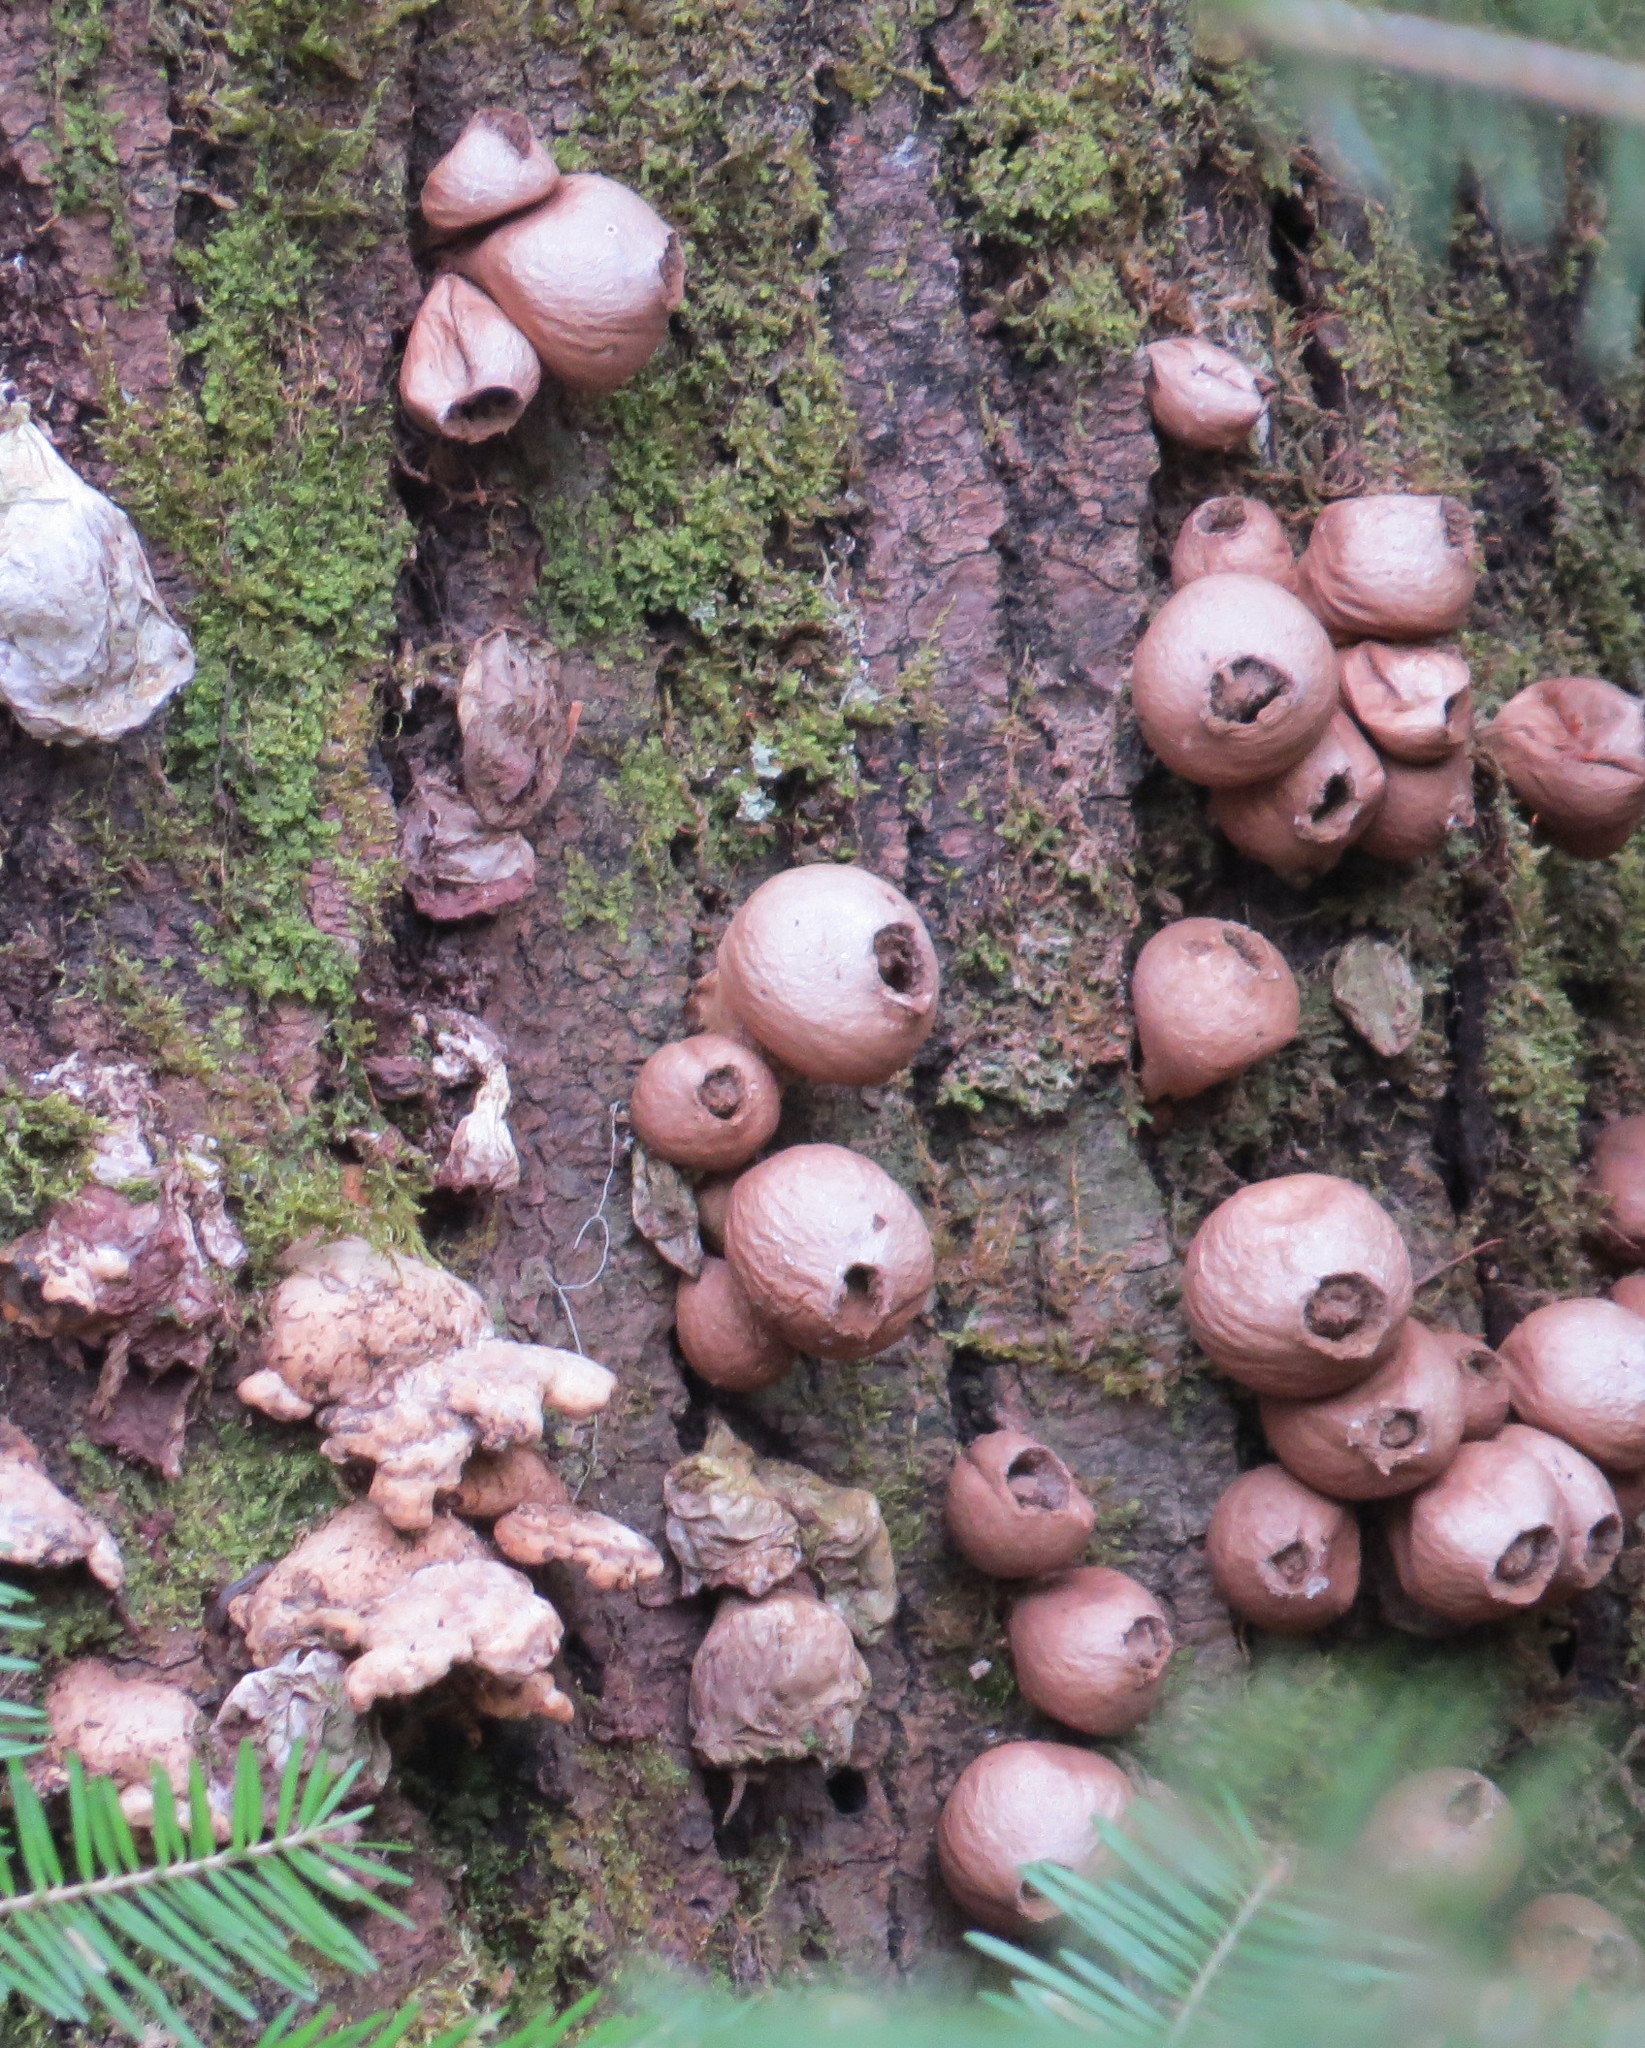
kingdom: Fungi
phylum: Basidiomycota
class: Agaricomycetes
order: Agaricales
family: Lycoperdaceae
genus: Apioperdon
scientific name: Apioperdon pyriforme
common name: Pear-shaped puffball
